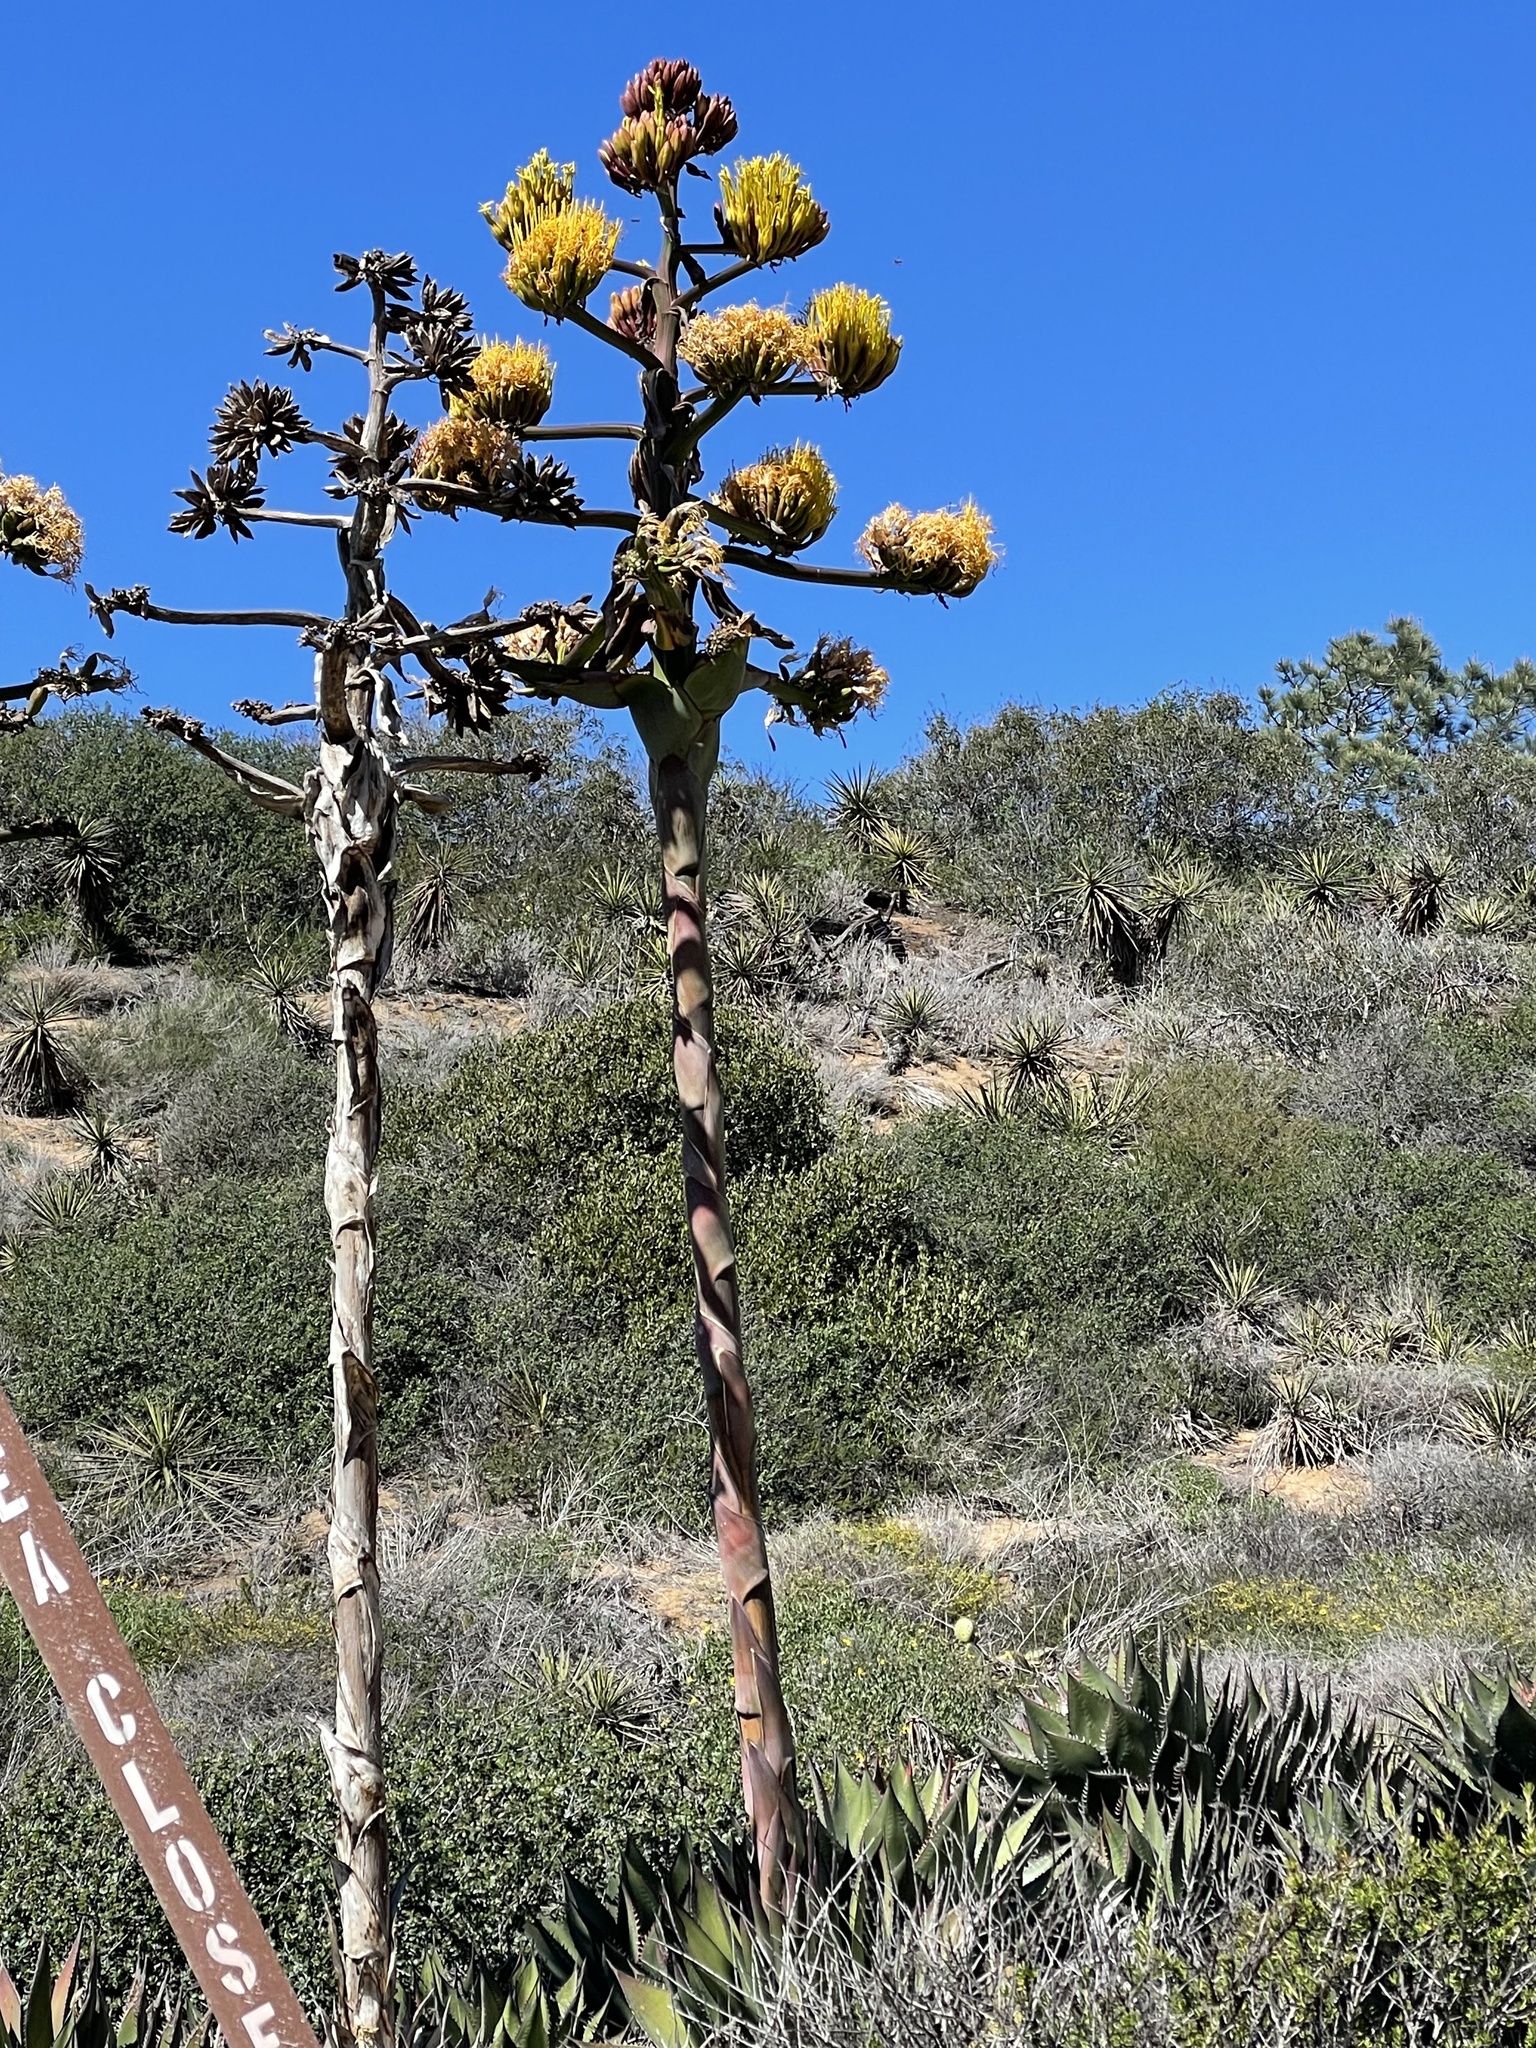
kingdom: Plantae
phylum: Tracheophyta
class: Liliopsida
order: Asparagales
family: Asparagaceae
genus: Agave
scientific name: Agave shawii
